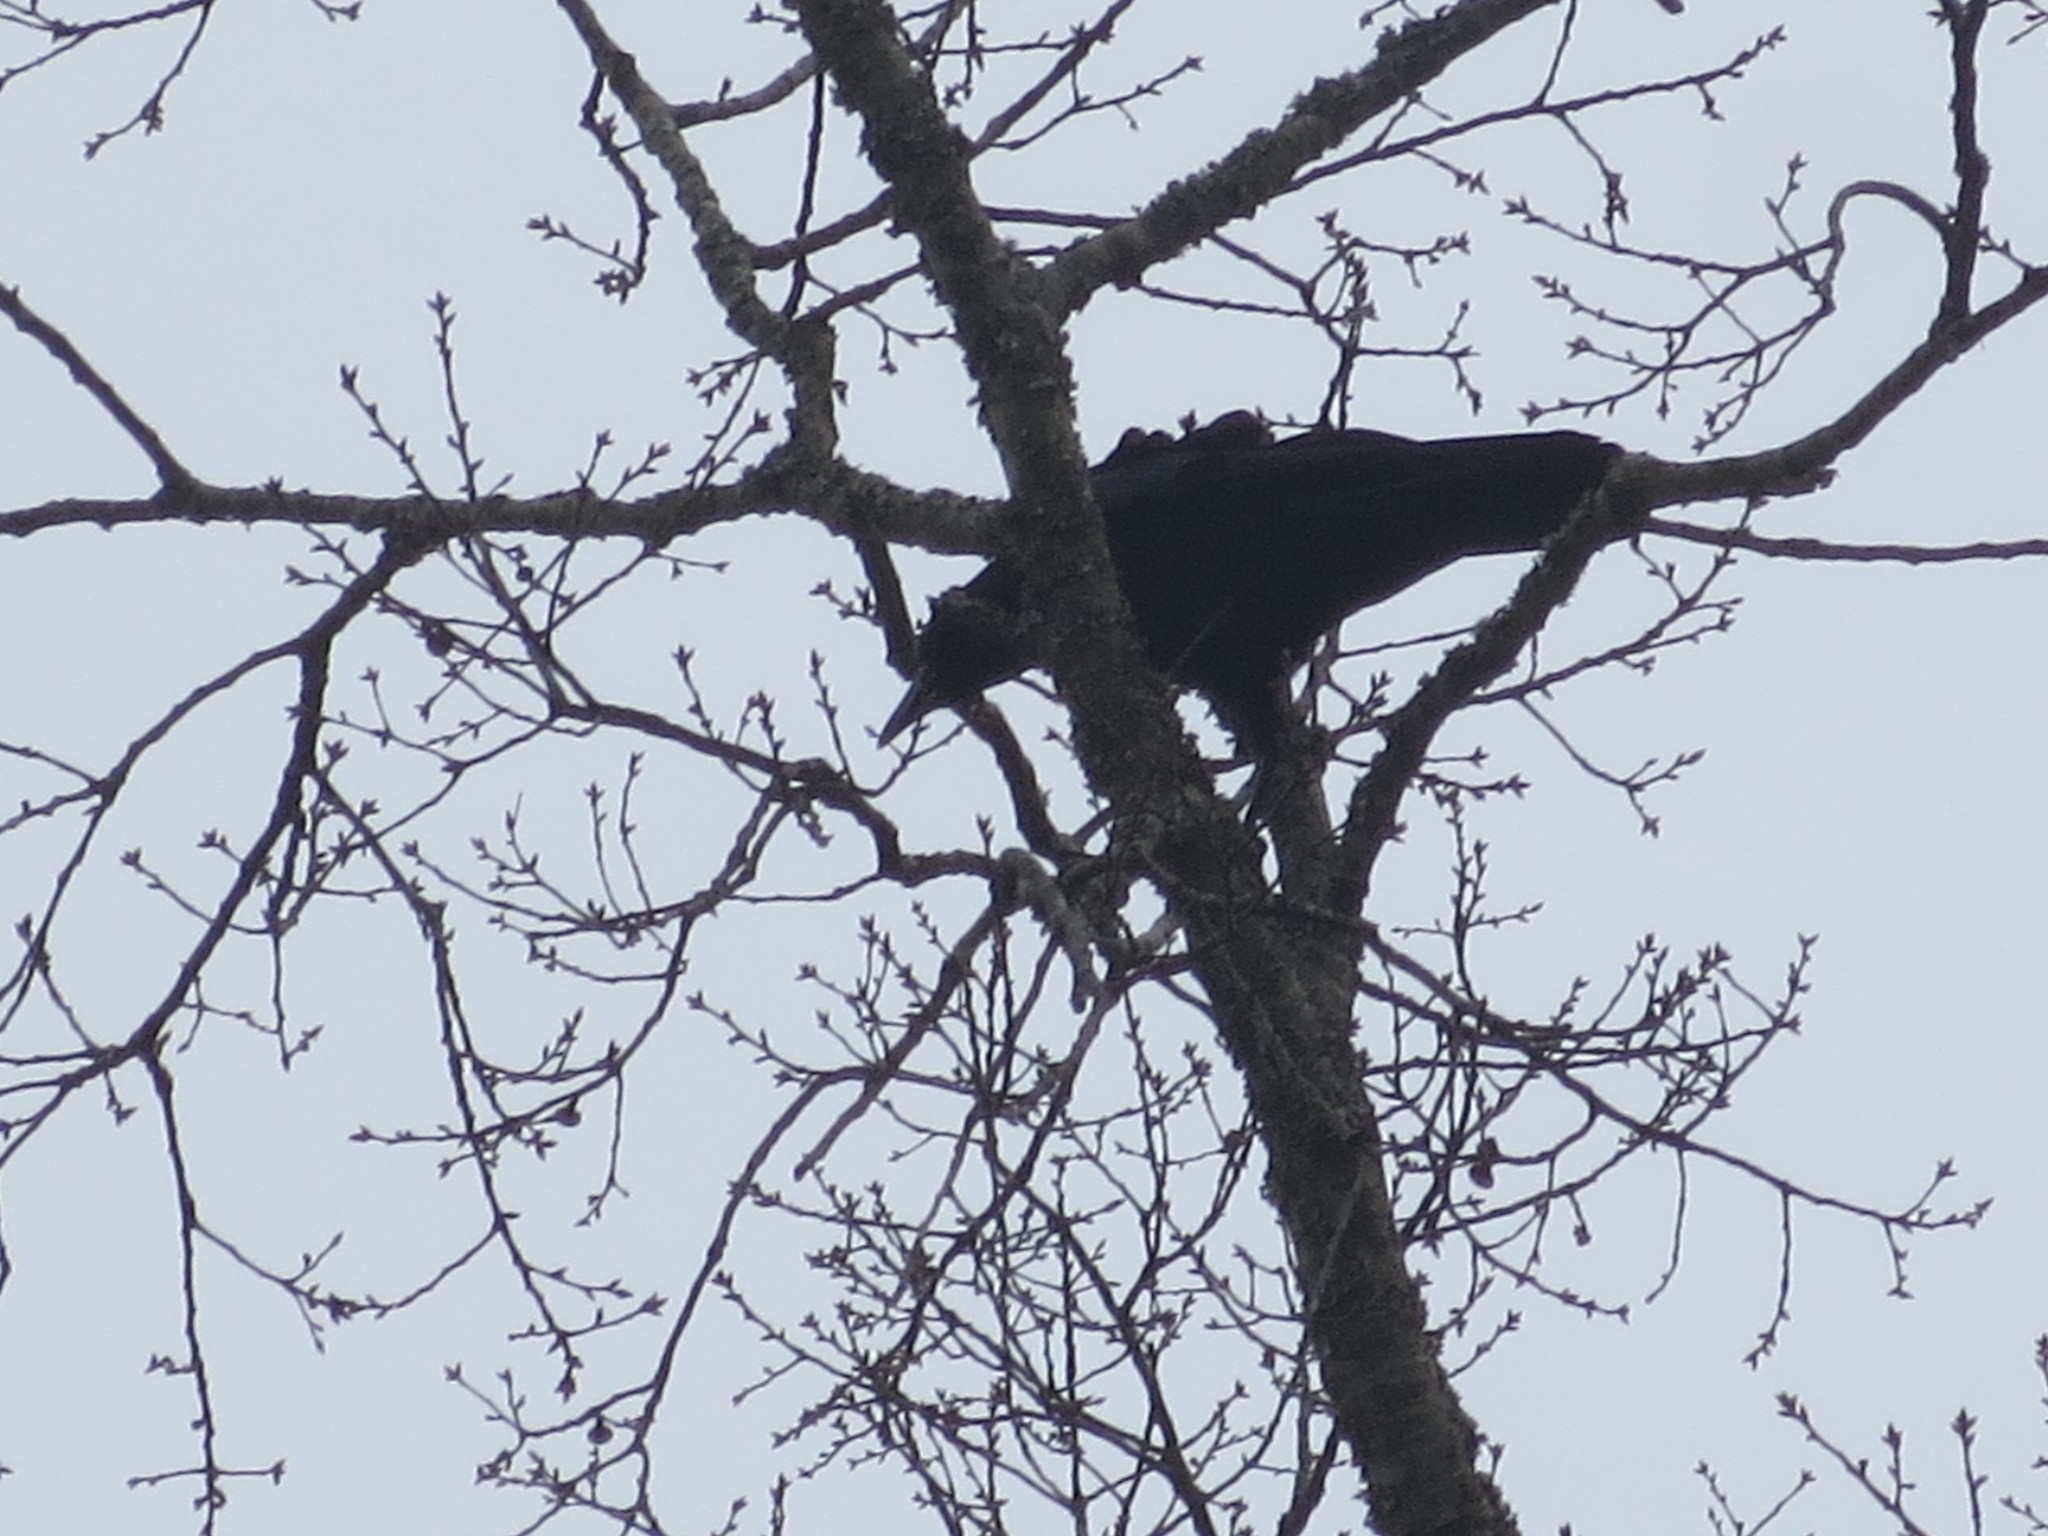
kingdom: Animalia
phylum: Chordata
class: Aves
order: Passeriformes
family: Corvidae
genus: Corvus
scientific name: Corvus brachyrhynchos
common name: American crow
